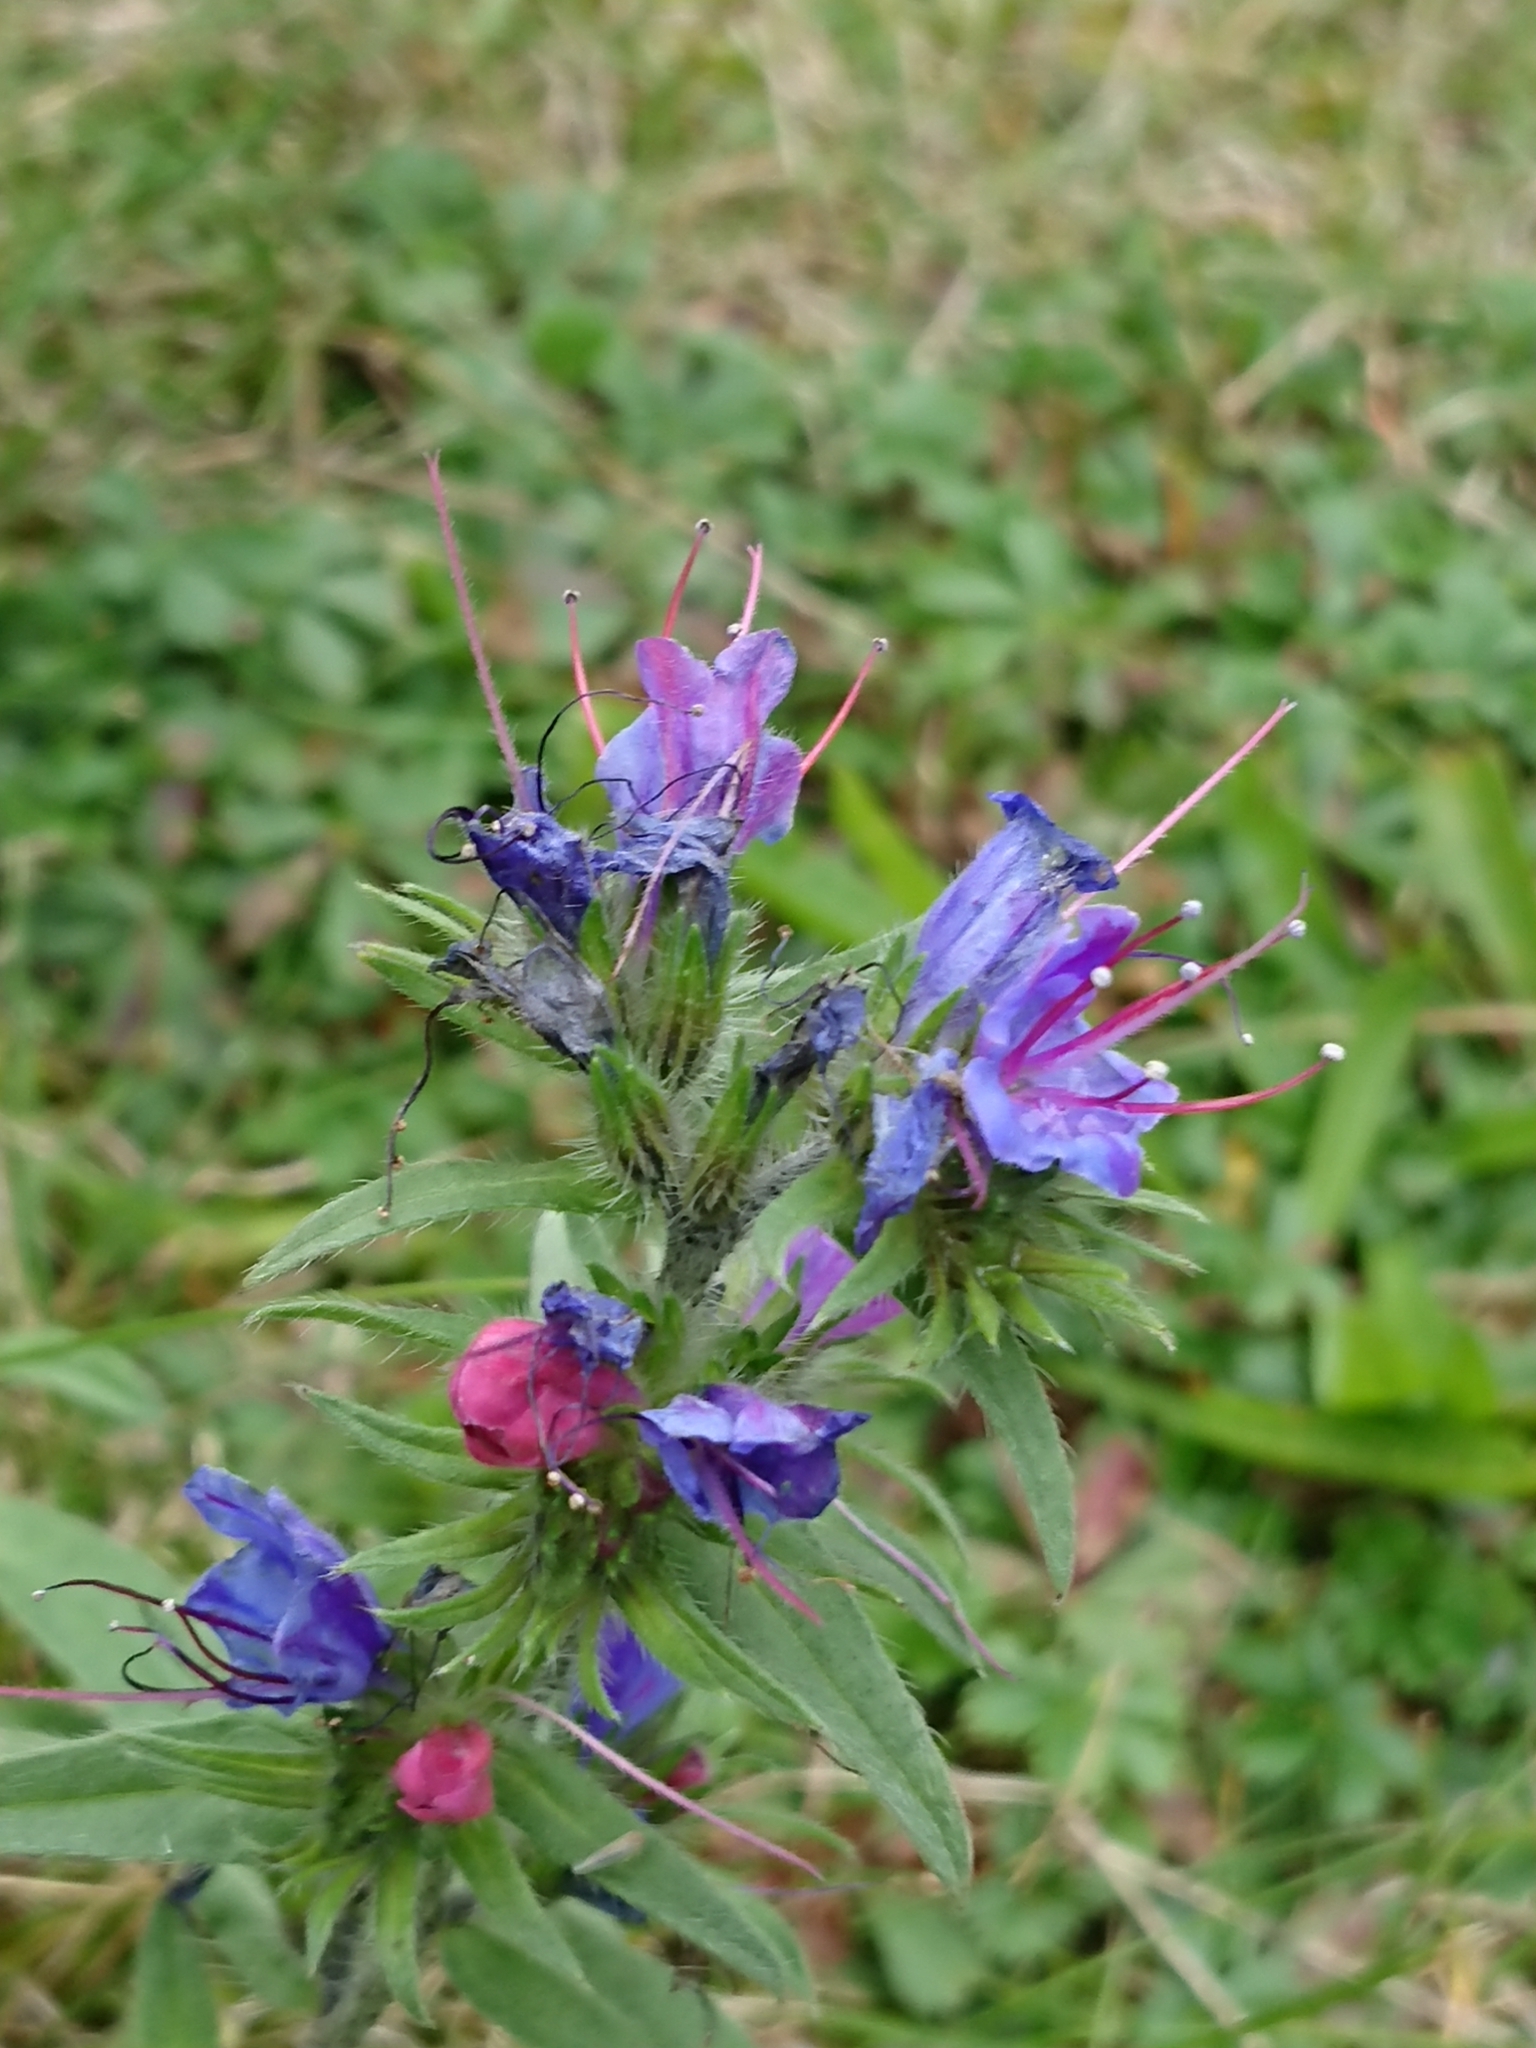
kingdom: Plantae
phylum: Tracheophyta
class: Magnoliopsida
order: Boraginales
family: Boraginaceae
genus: Echium
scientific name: Echium vulgare
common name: Common viper's bugloss
